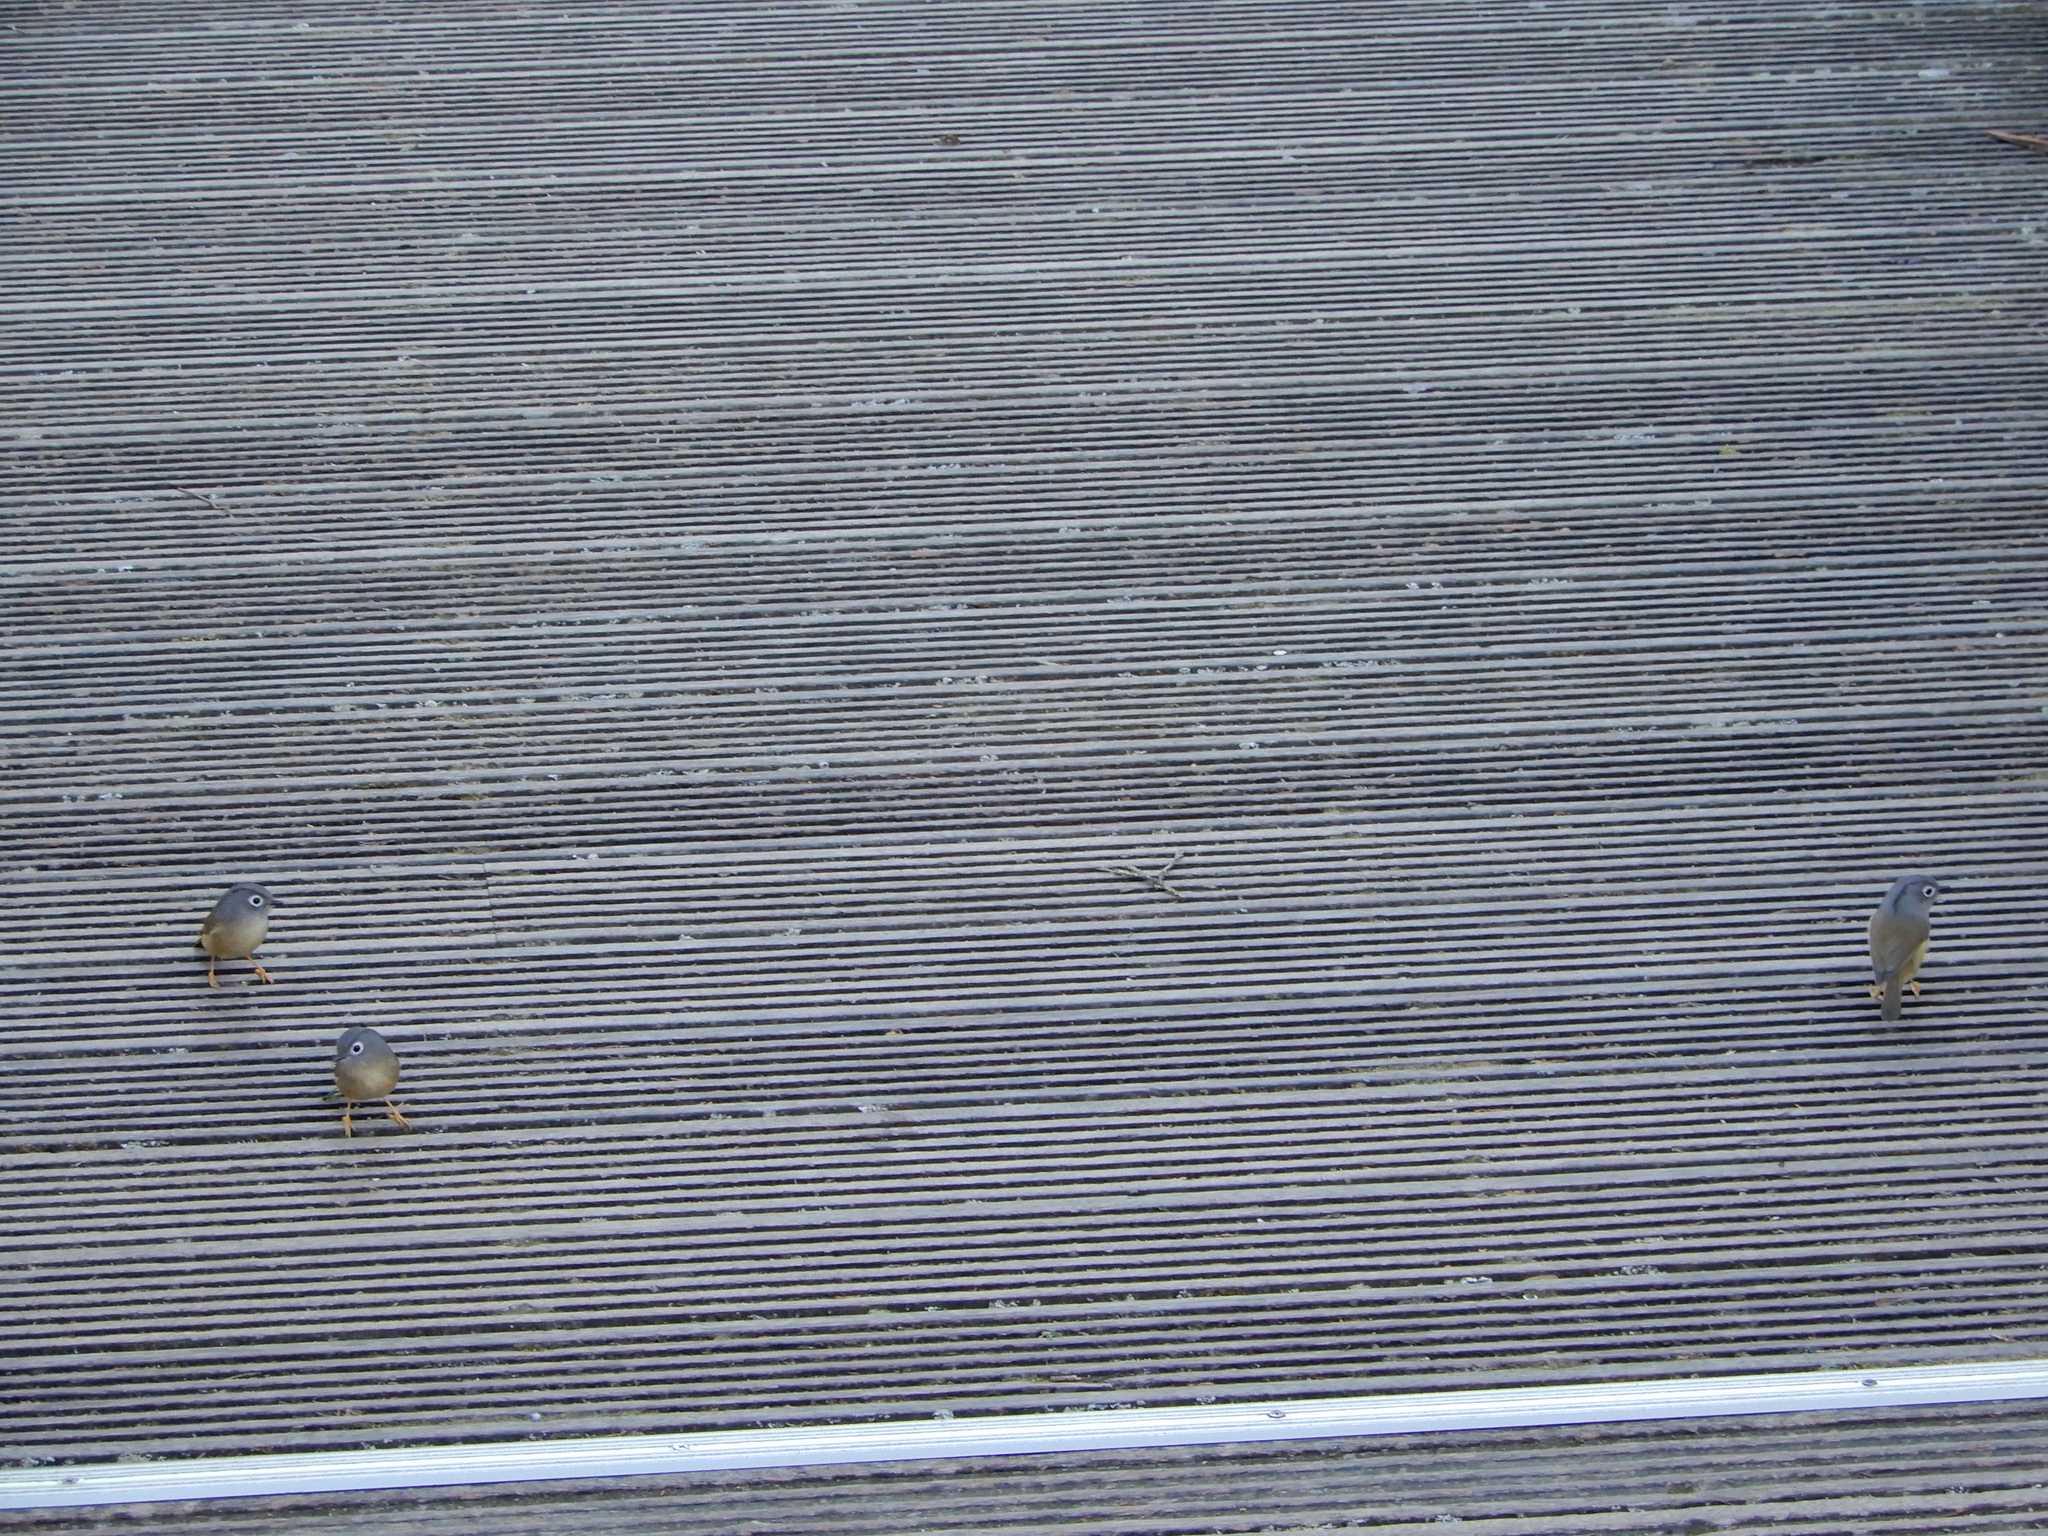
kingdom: Animalia
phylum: Chordata
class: Aves
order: Passeriformes
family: Pellorneidae
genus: Alcippe
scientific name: Alcippe morrisonia
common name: Grey-cheeked fulvetta
